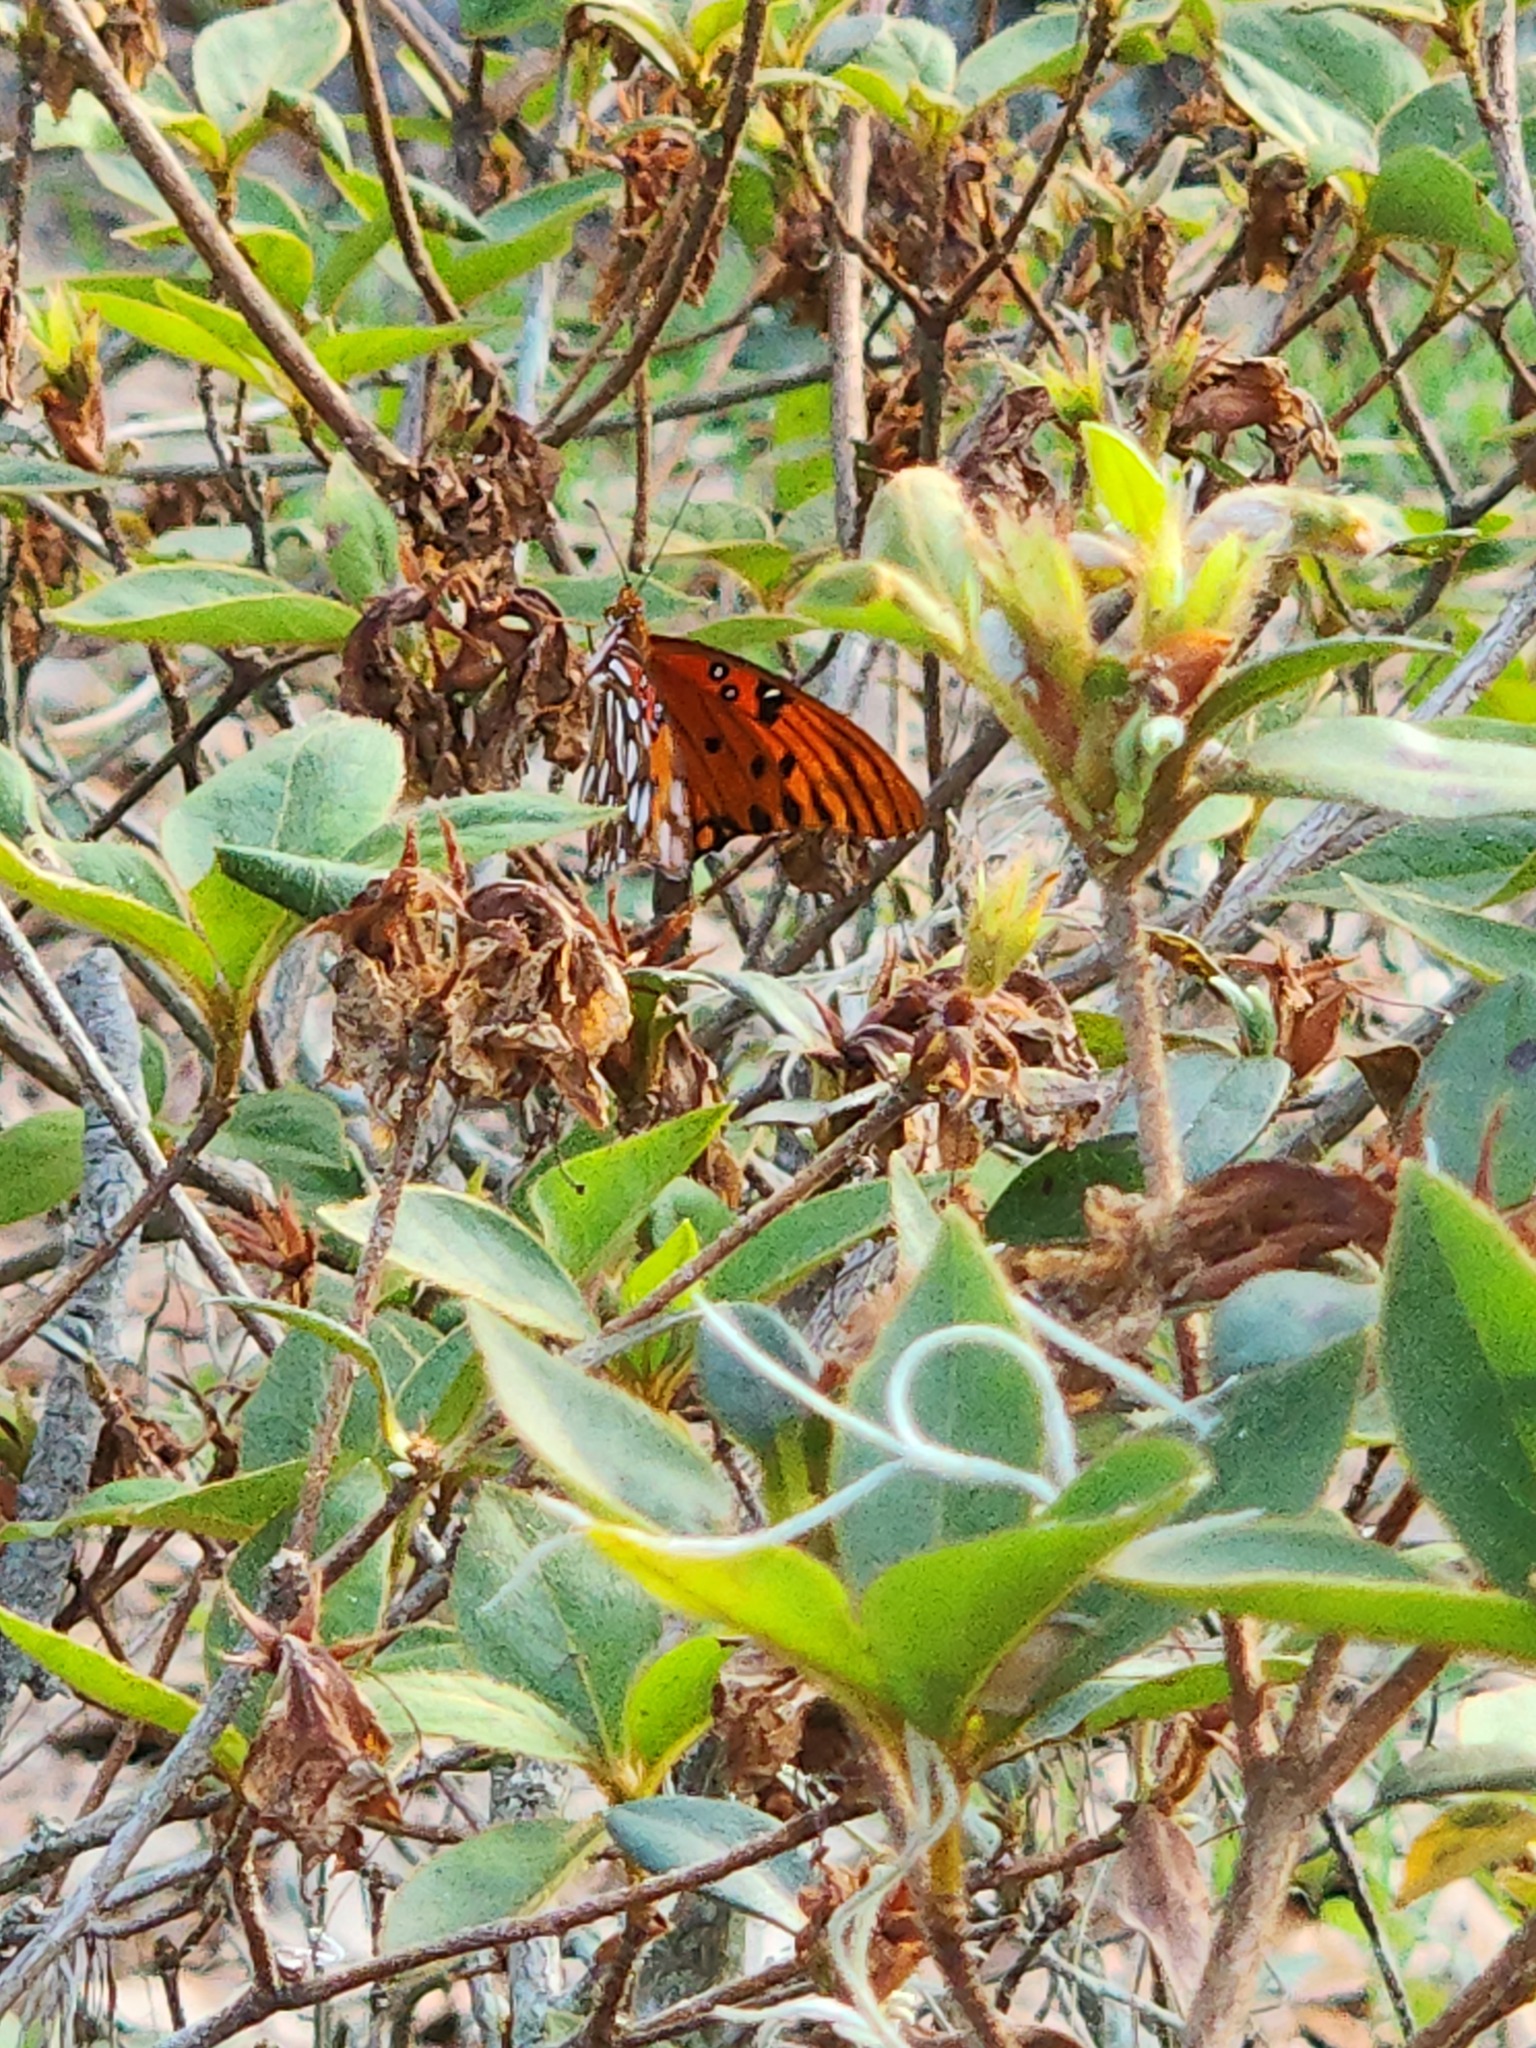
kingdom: Animalia
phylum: Arthropoda
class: Insecta
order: Lepidoptera
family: Nymphalidae
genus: Dione
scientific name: Dione vanillae
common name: Gulf fritillary
